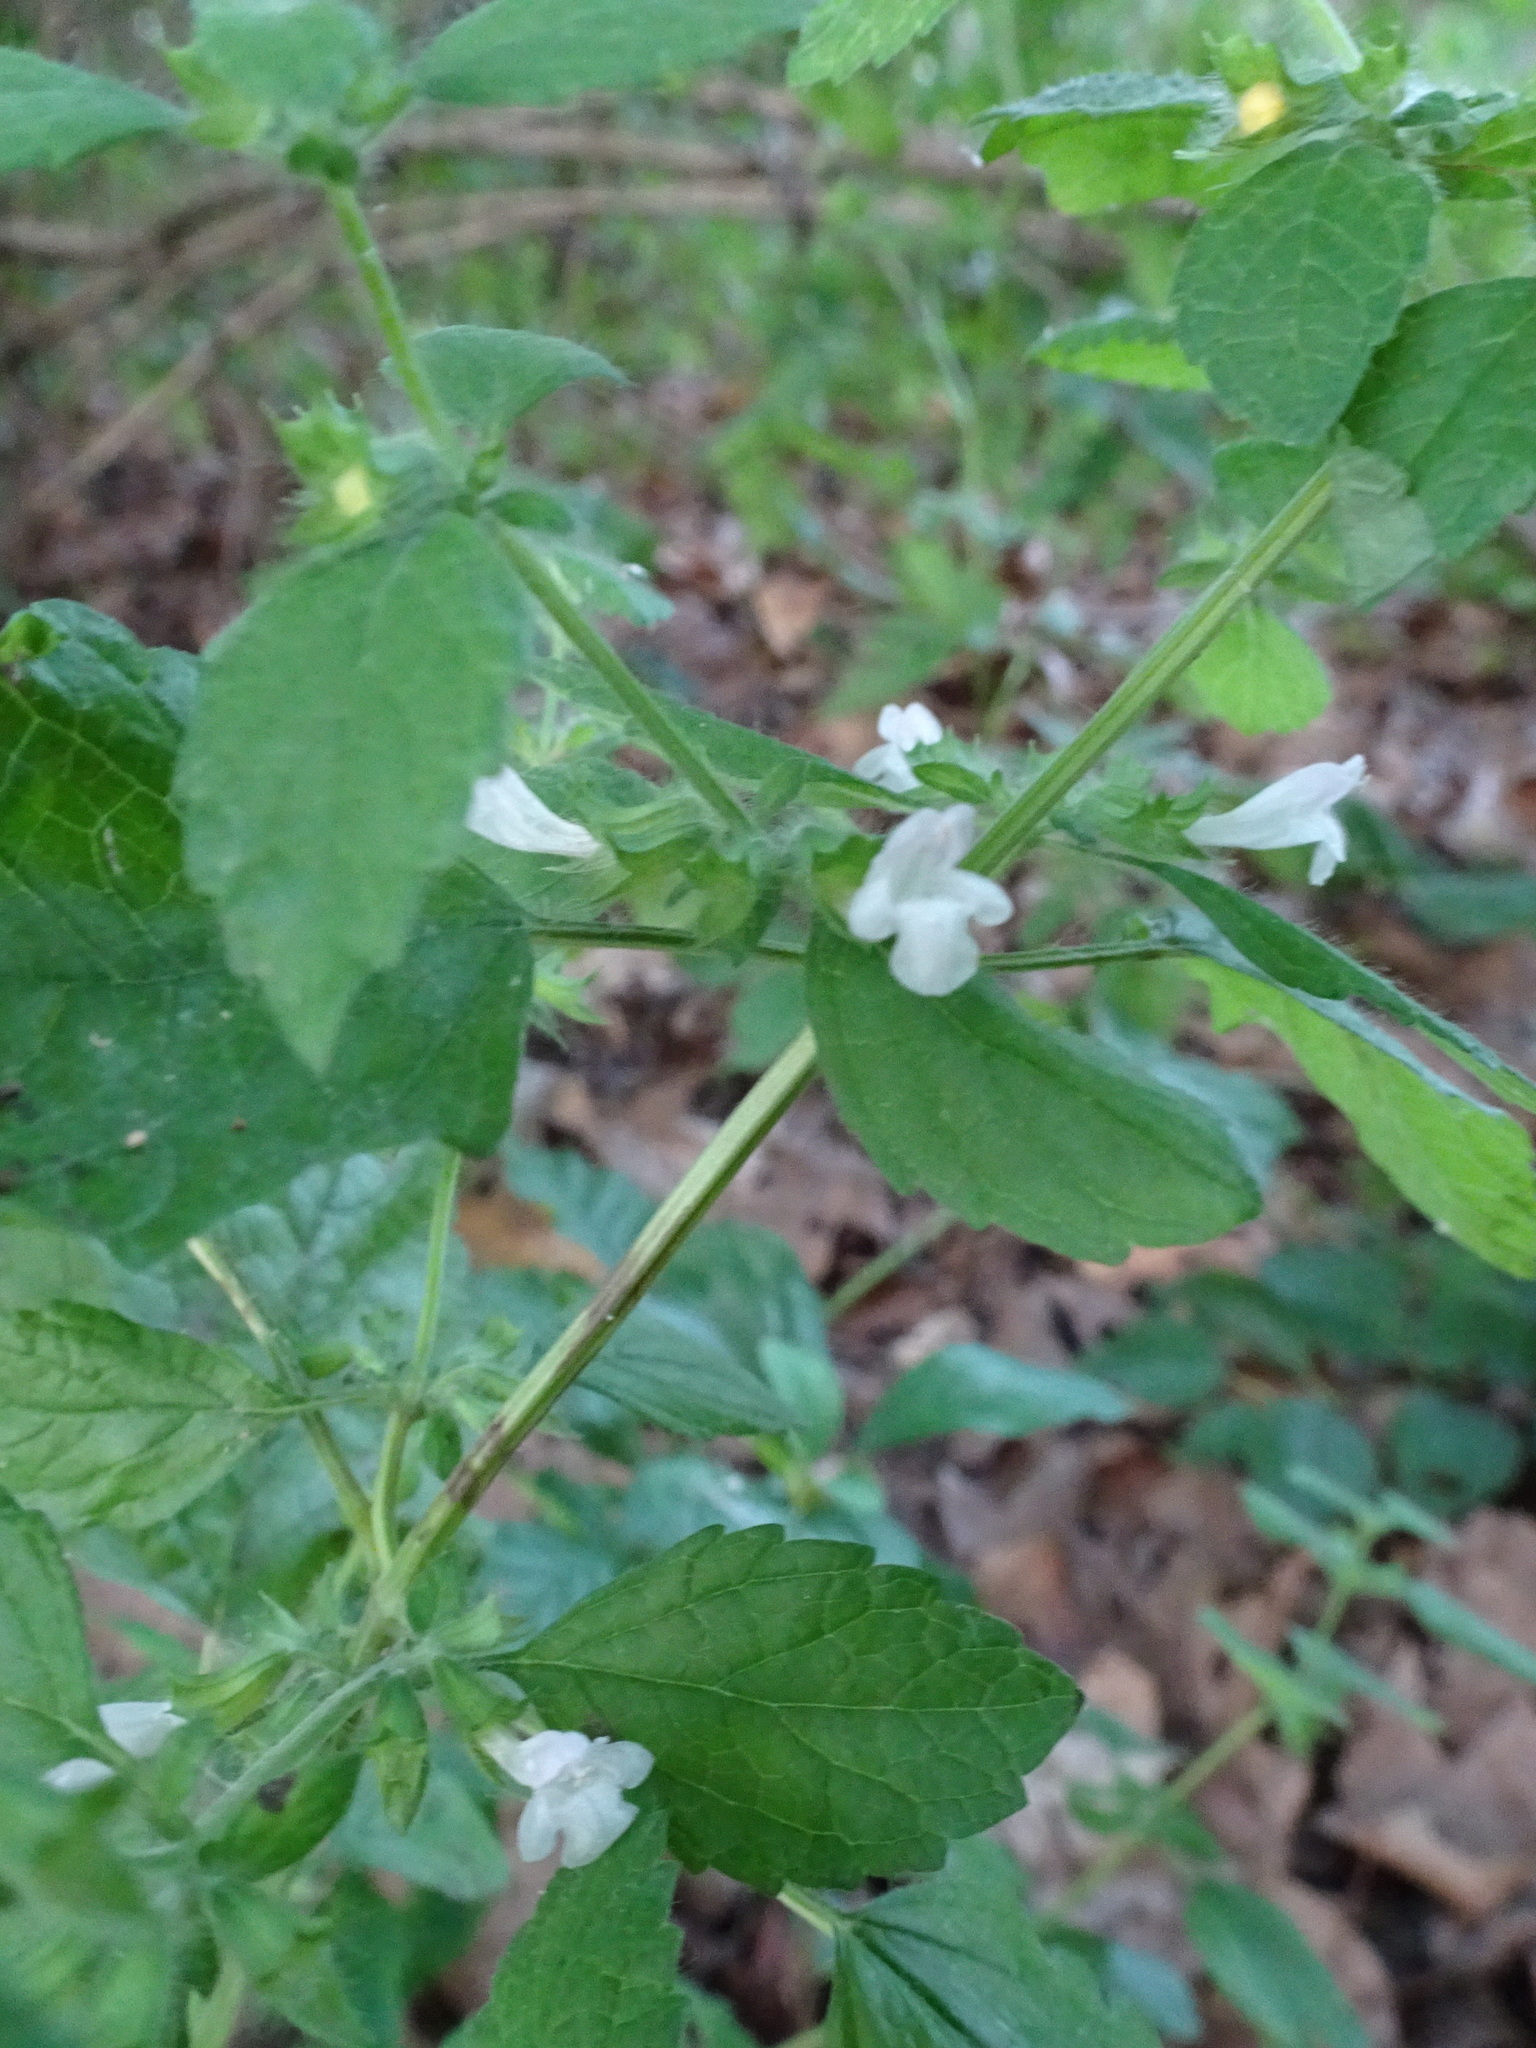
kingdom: Plantae
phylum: Tracheophyta
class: Magnoliopsida
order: Lamiales
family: Lamiaceae
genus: Melissa
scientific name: Melissa officinalis
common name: Balm
